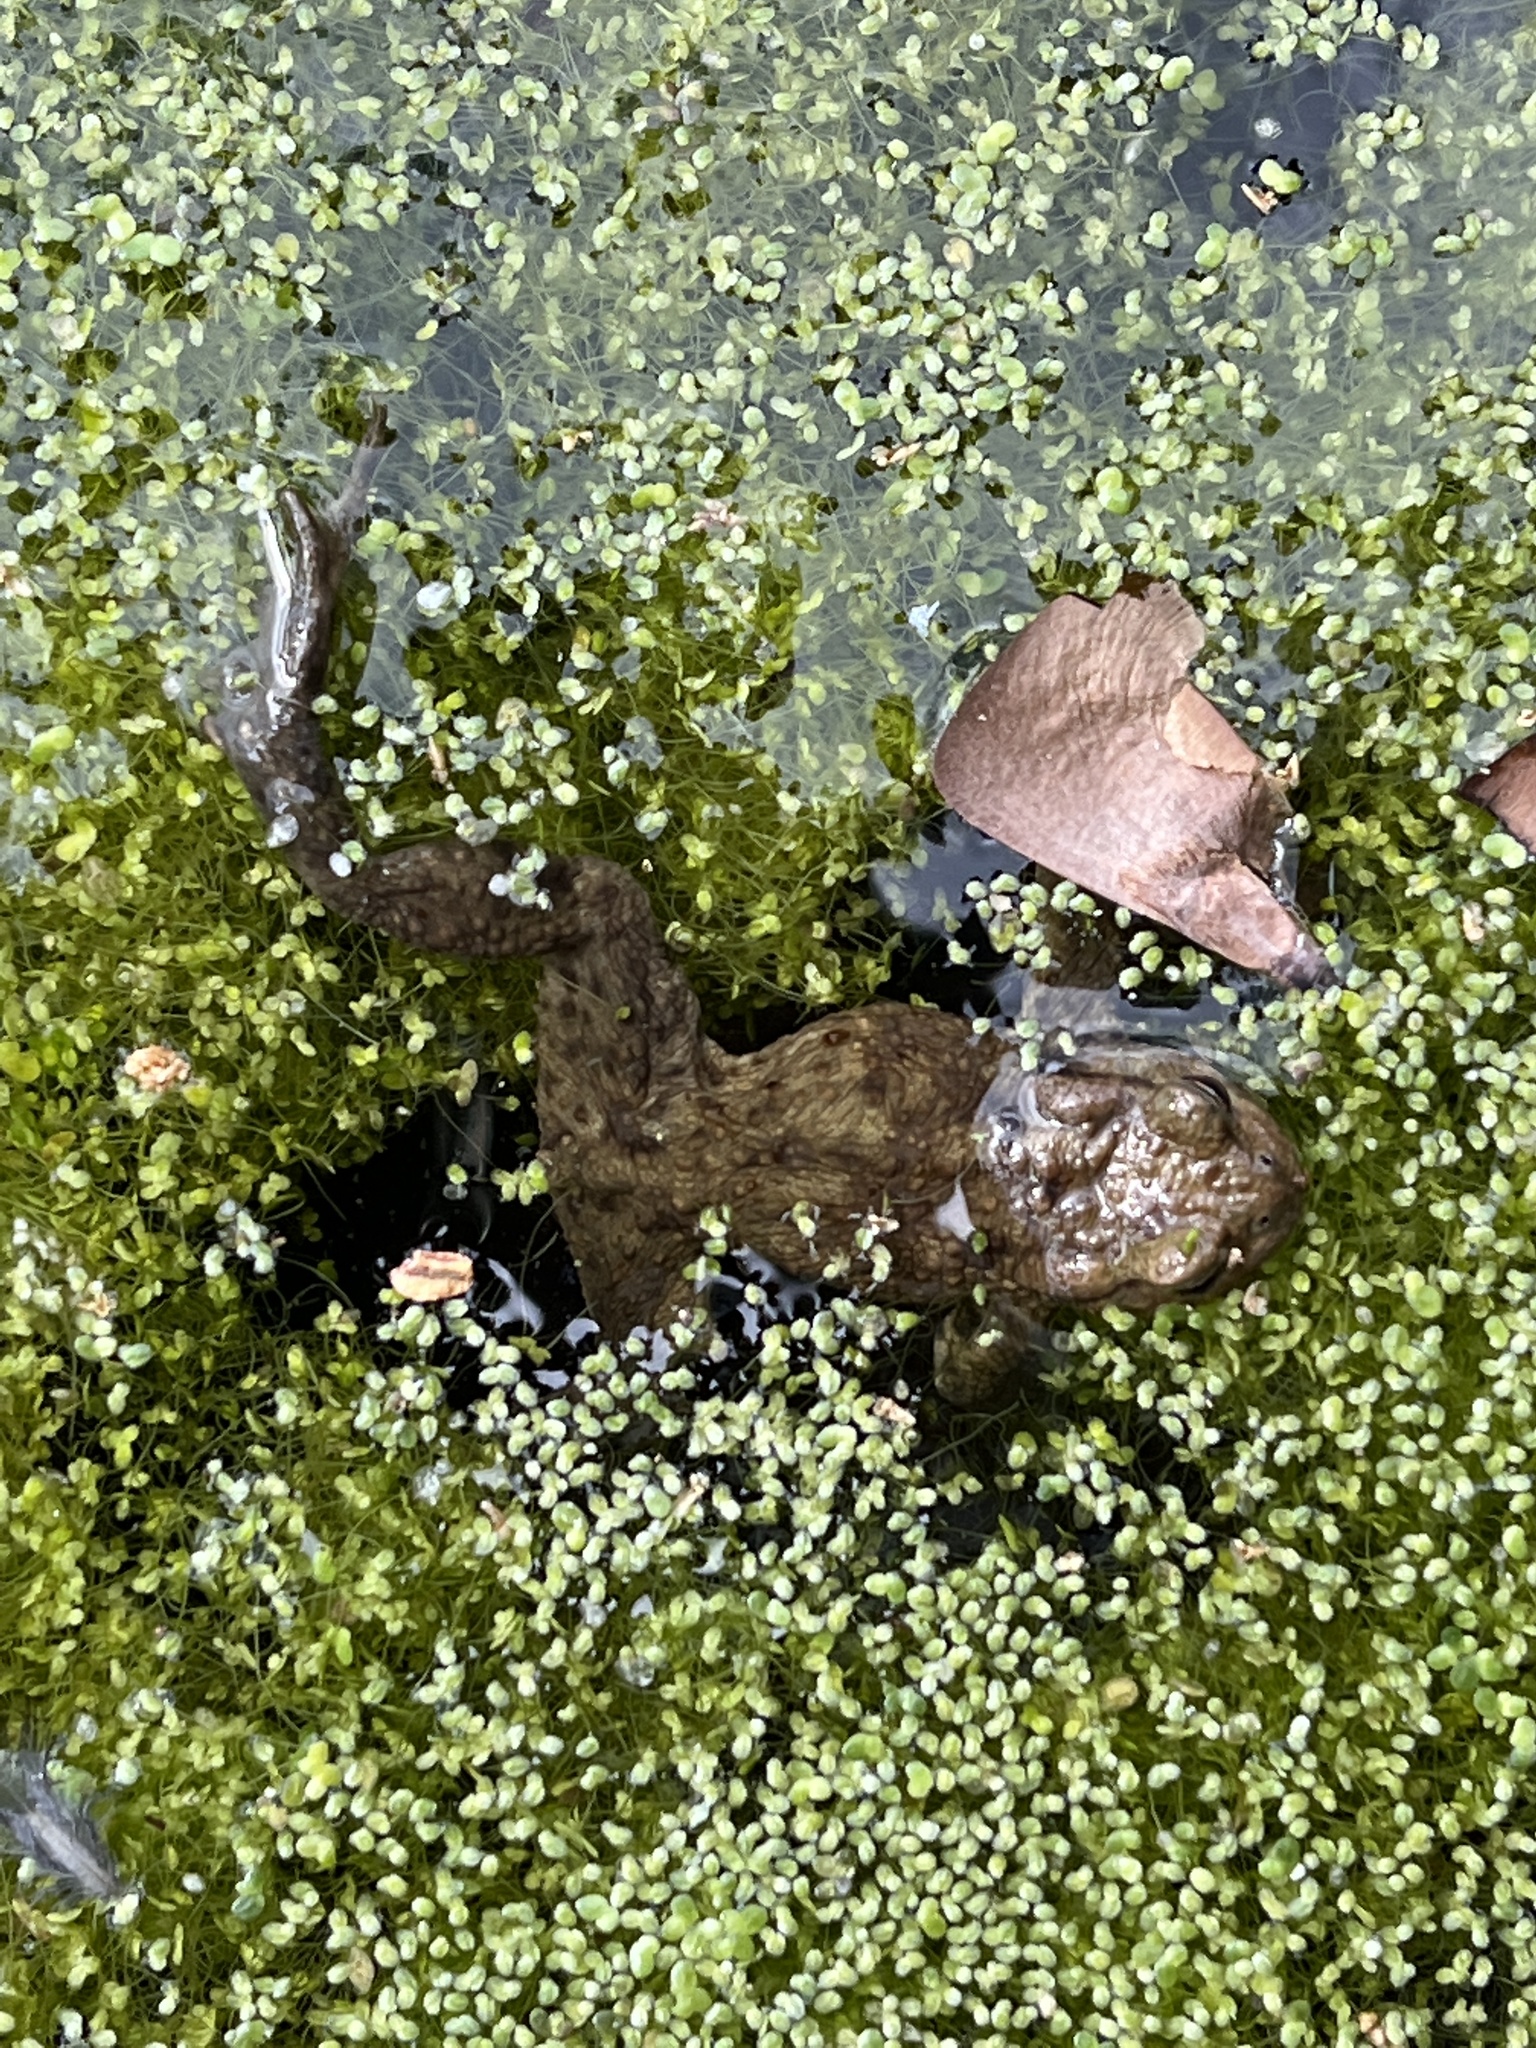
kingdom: Animalia
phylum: Chordata
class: Amphibia
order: Anura
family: Bufonidae
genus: Bufo
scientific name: Bufo bufo
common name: Common toad
